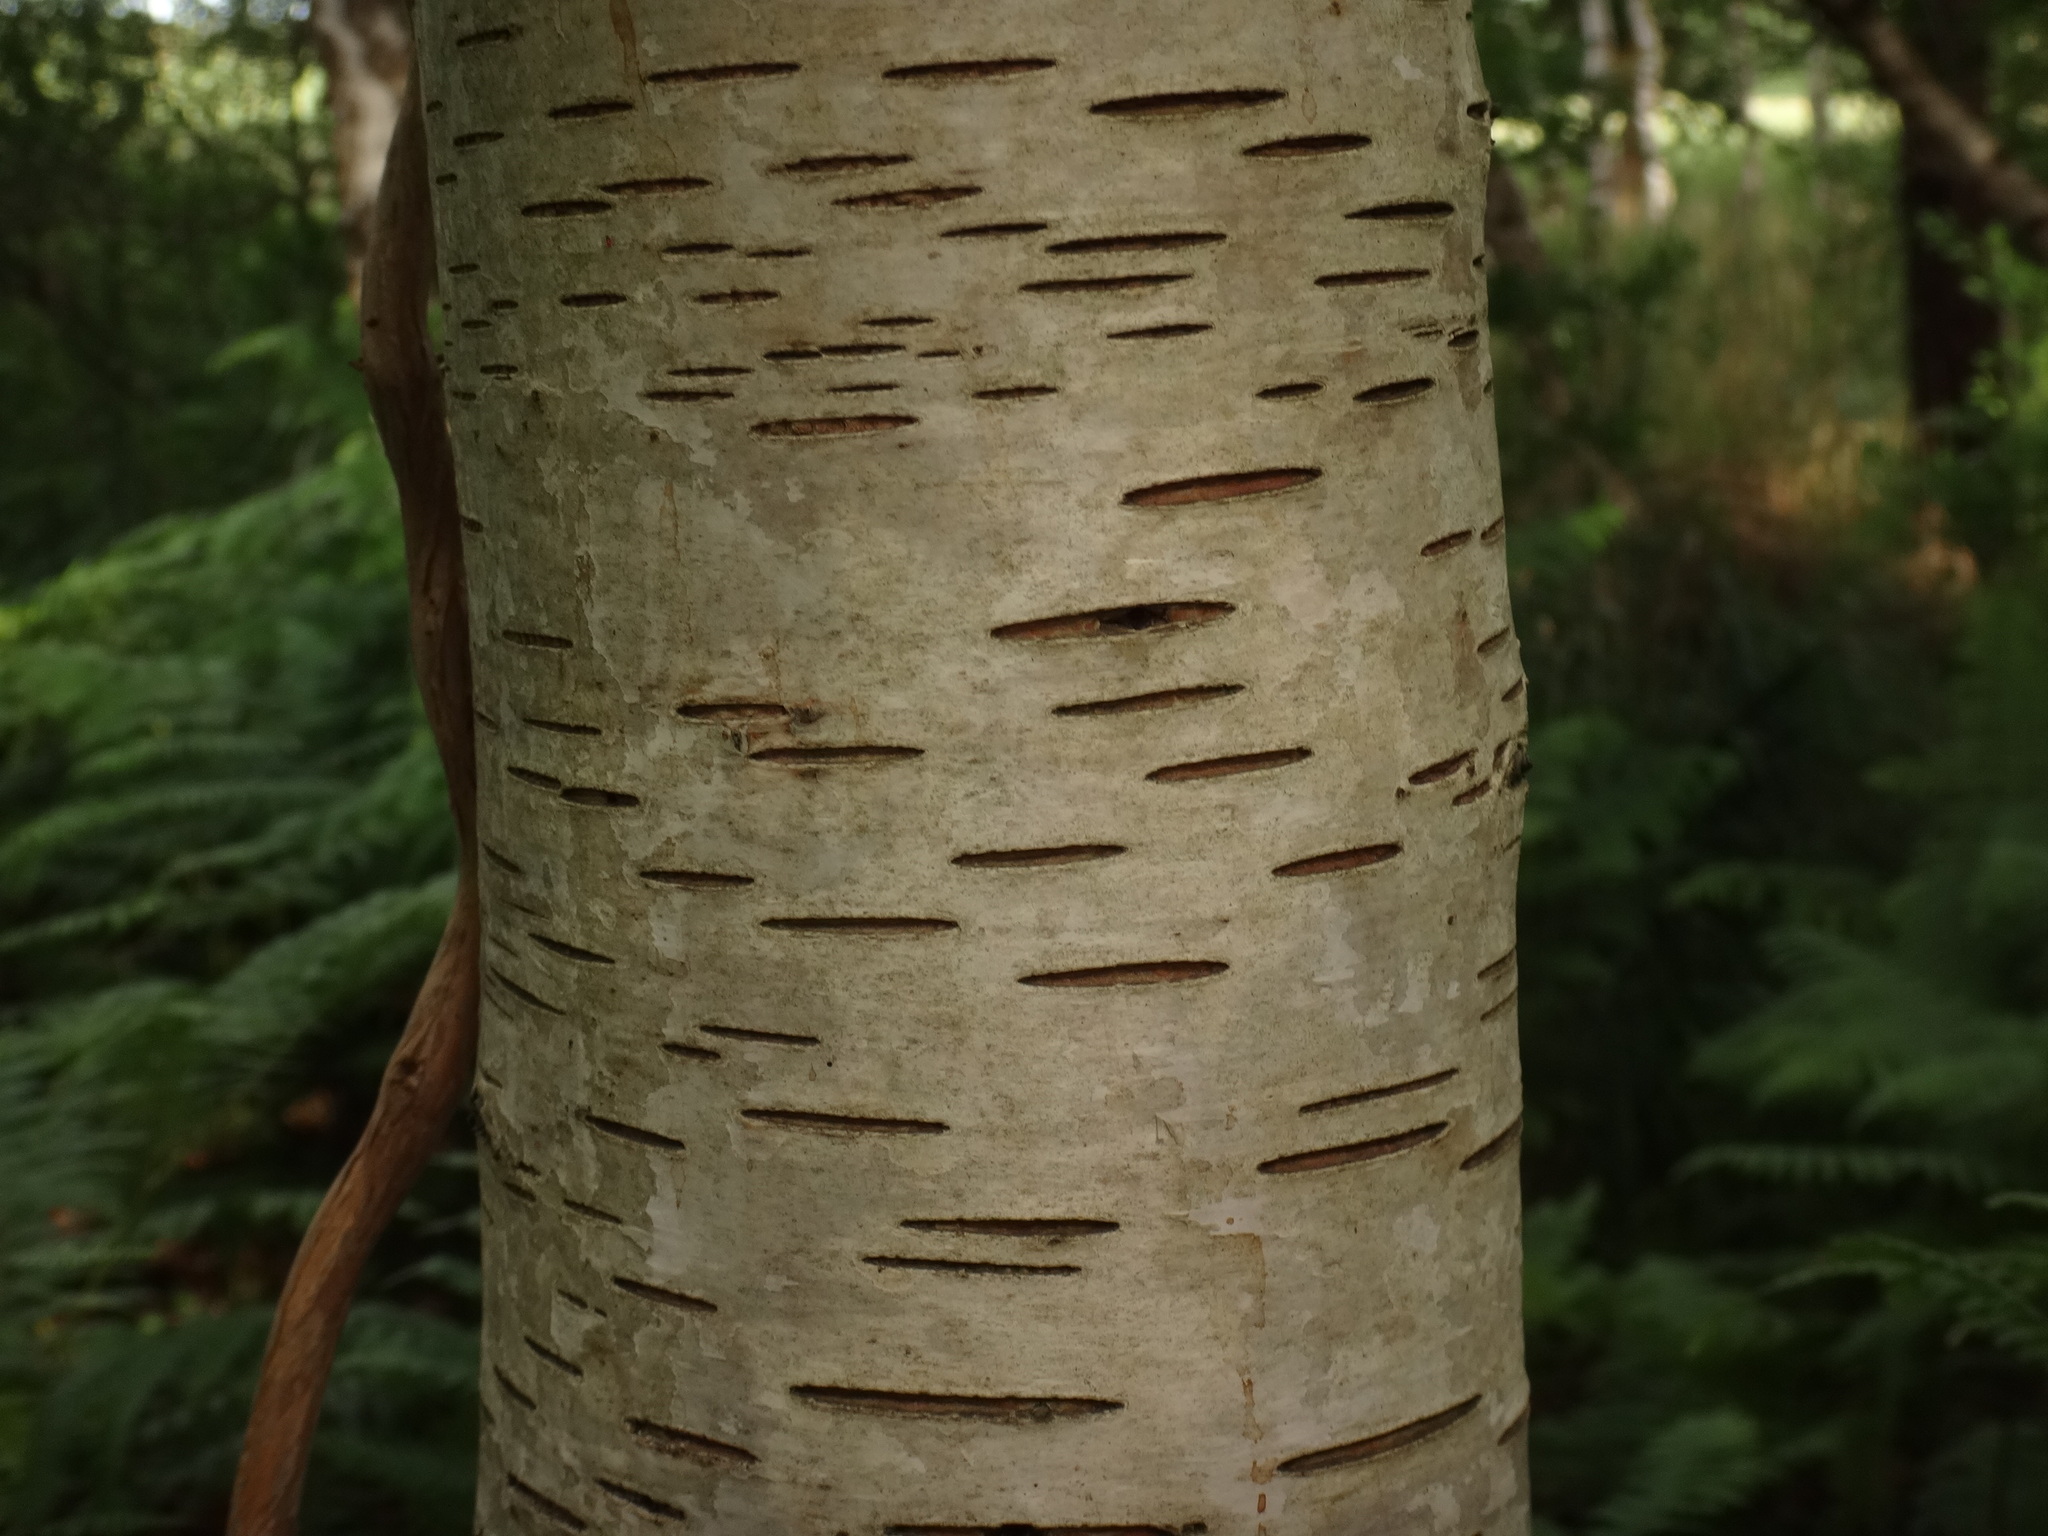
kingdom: Plantae
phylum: Tracheophyta
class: Magnoliopsida
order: Fagales
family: Betulaceae
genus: Betula
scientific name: Betula pubescens
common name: Downy birch
